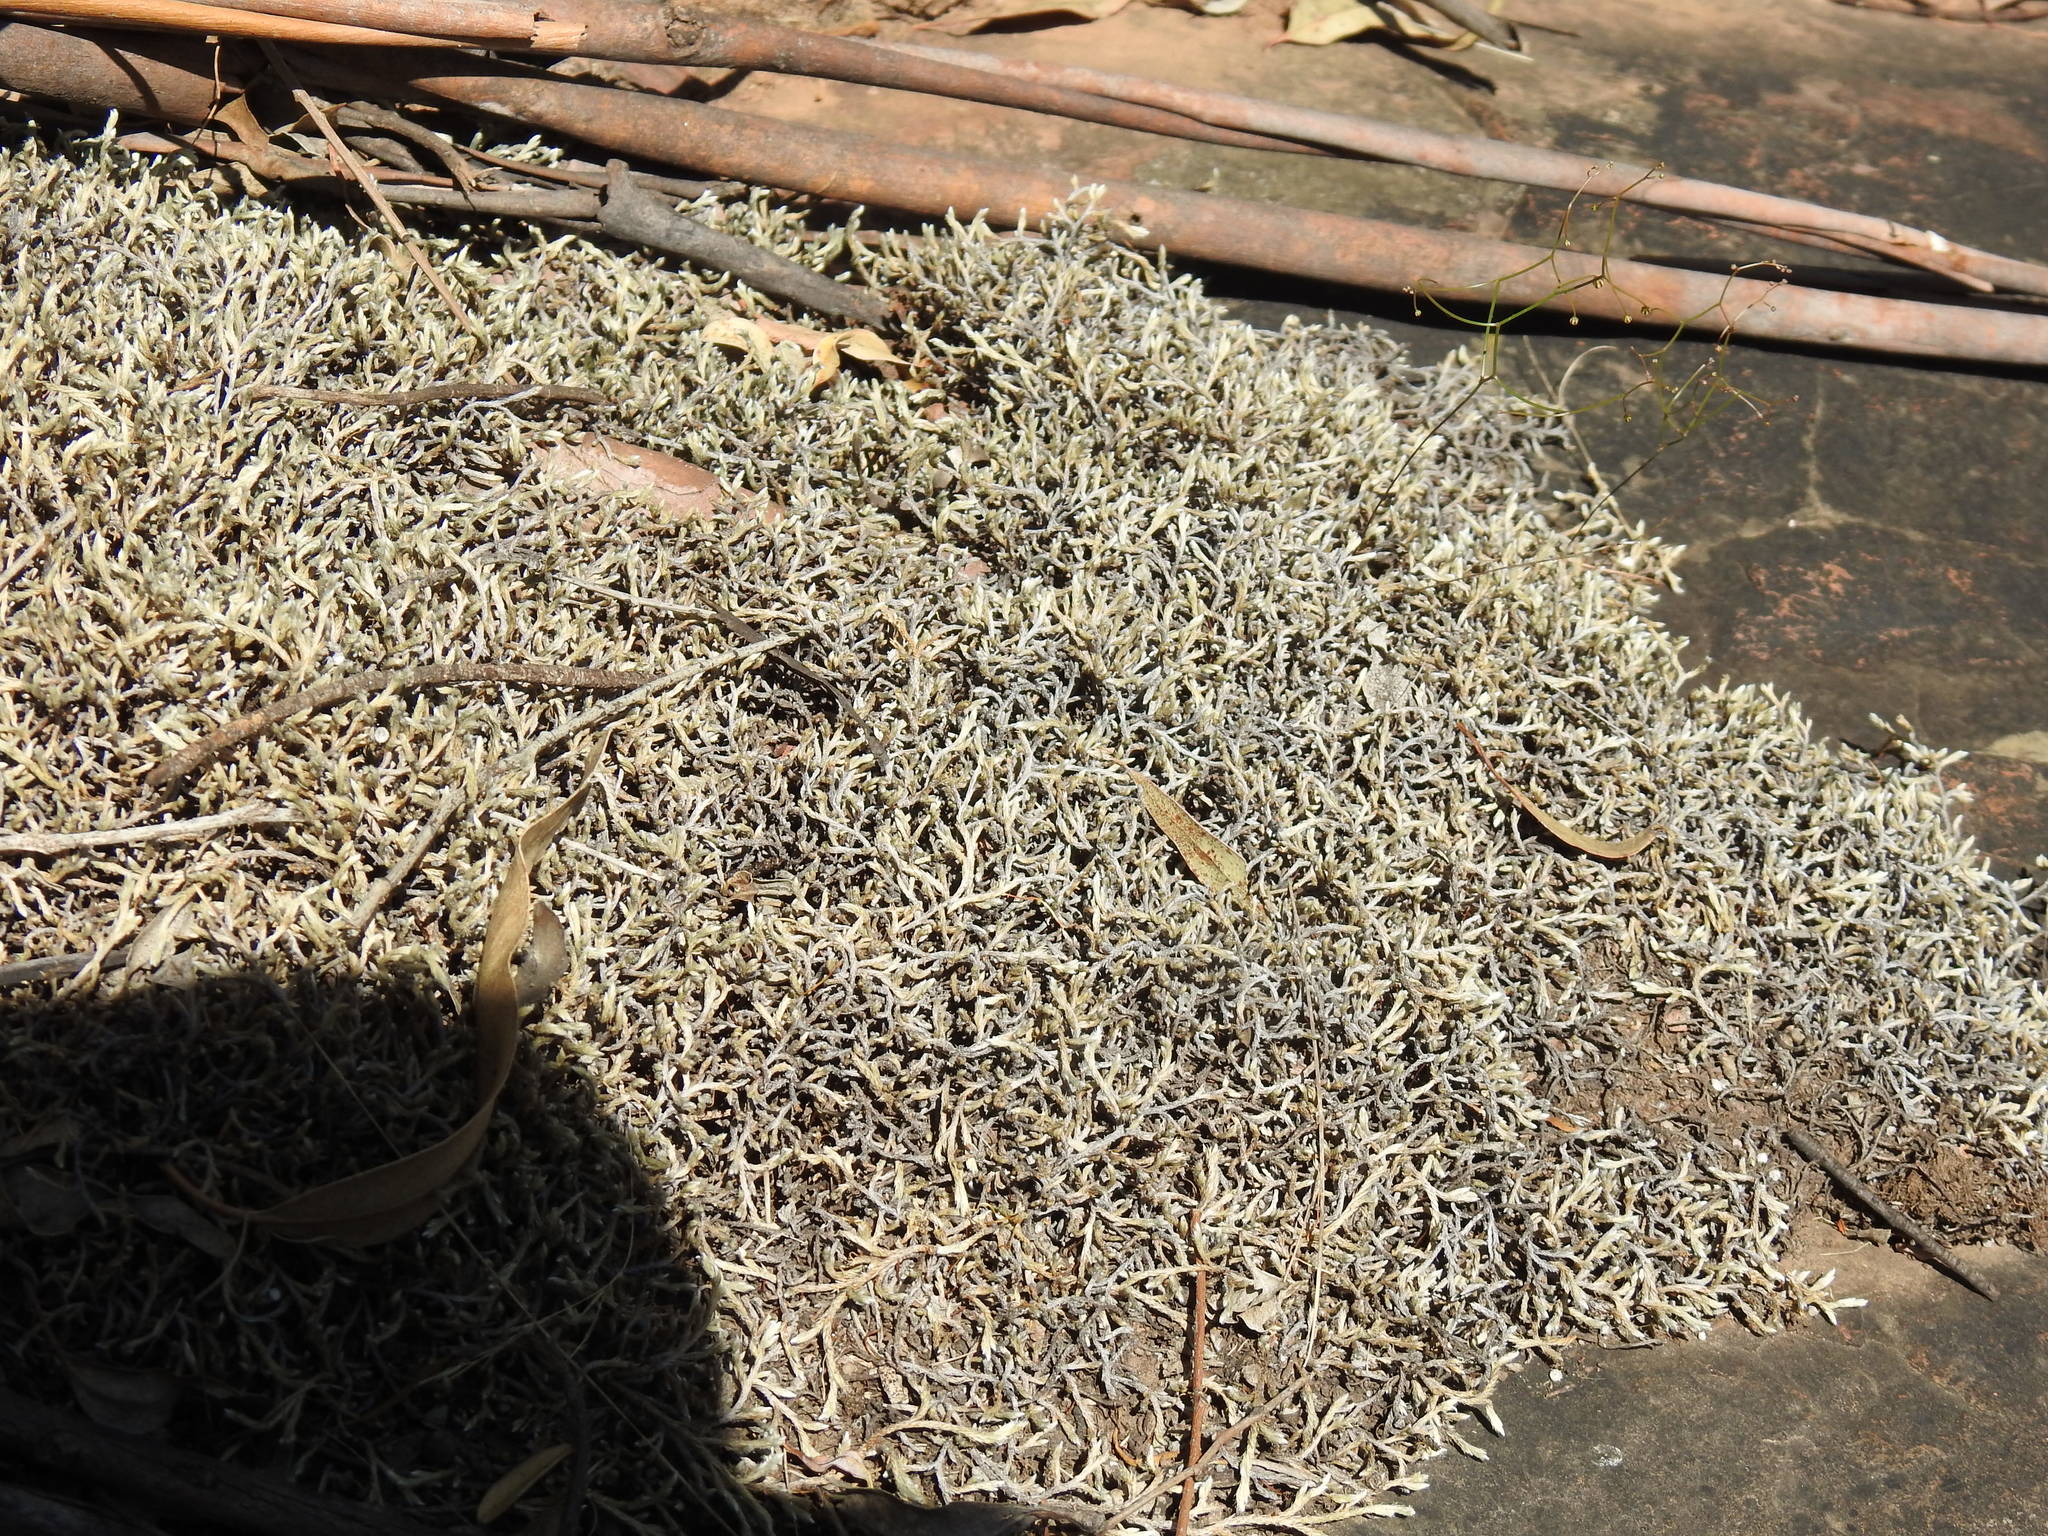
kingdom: Plantae
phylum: Tracheophyta
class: Lycopodiopsida
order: Selaginellales
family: Selaginellaceae
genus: Selaginella
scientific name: Selaginella dregei
